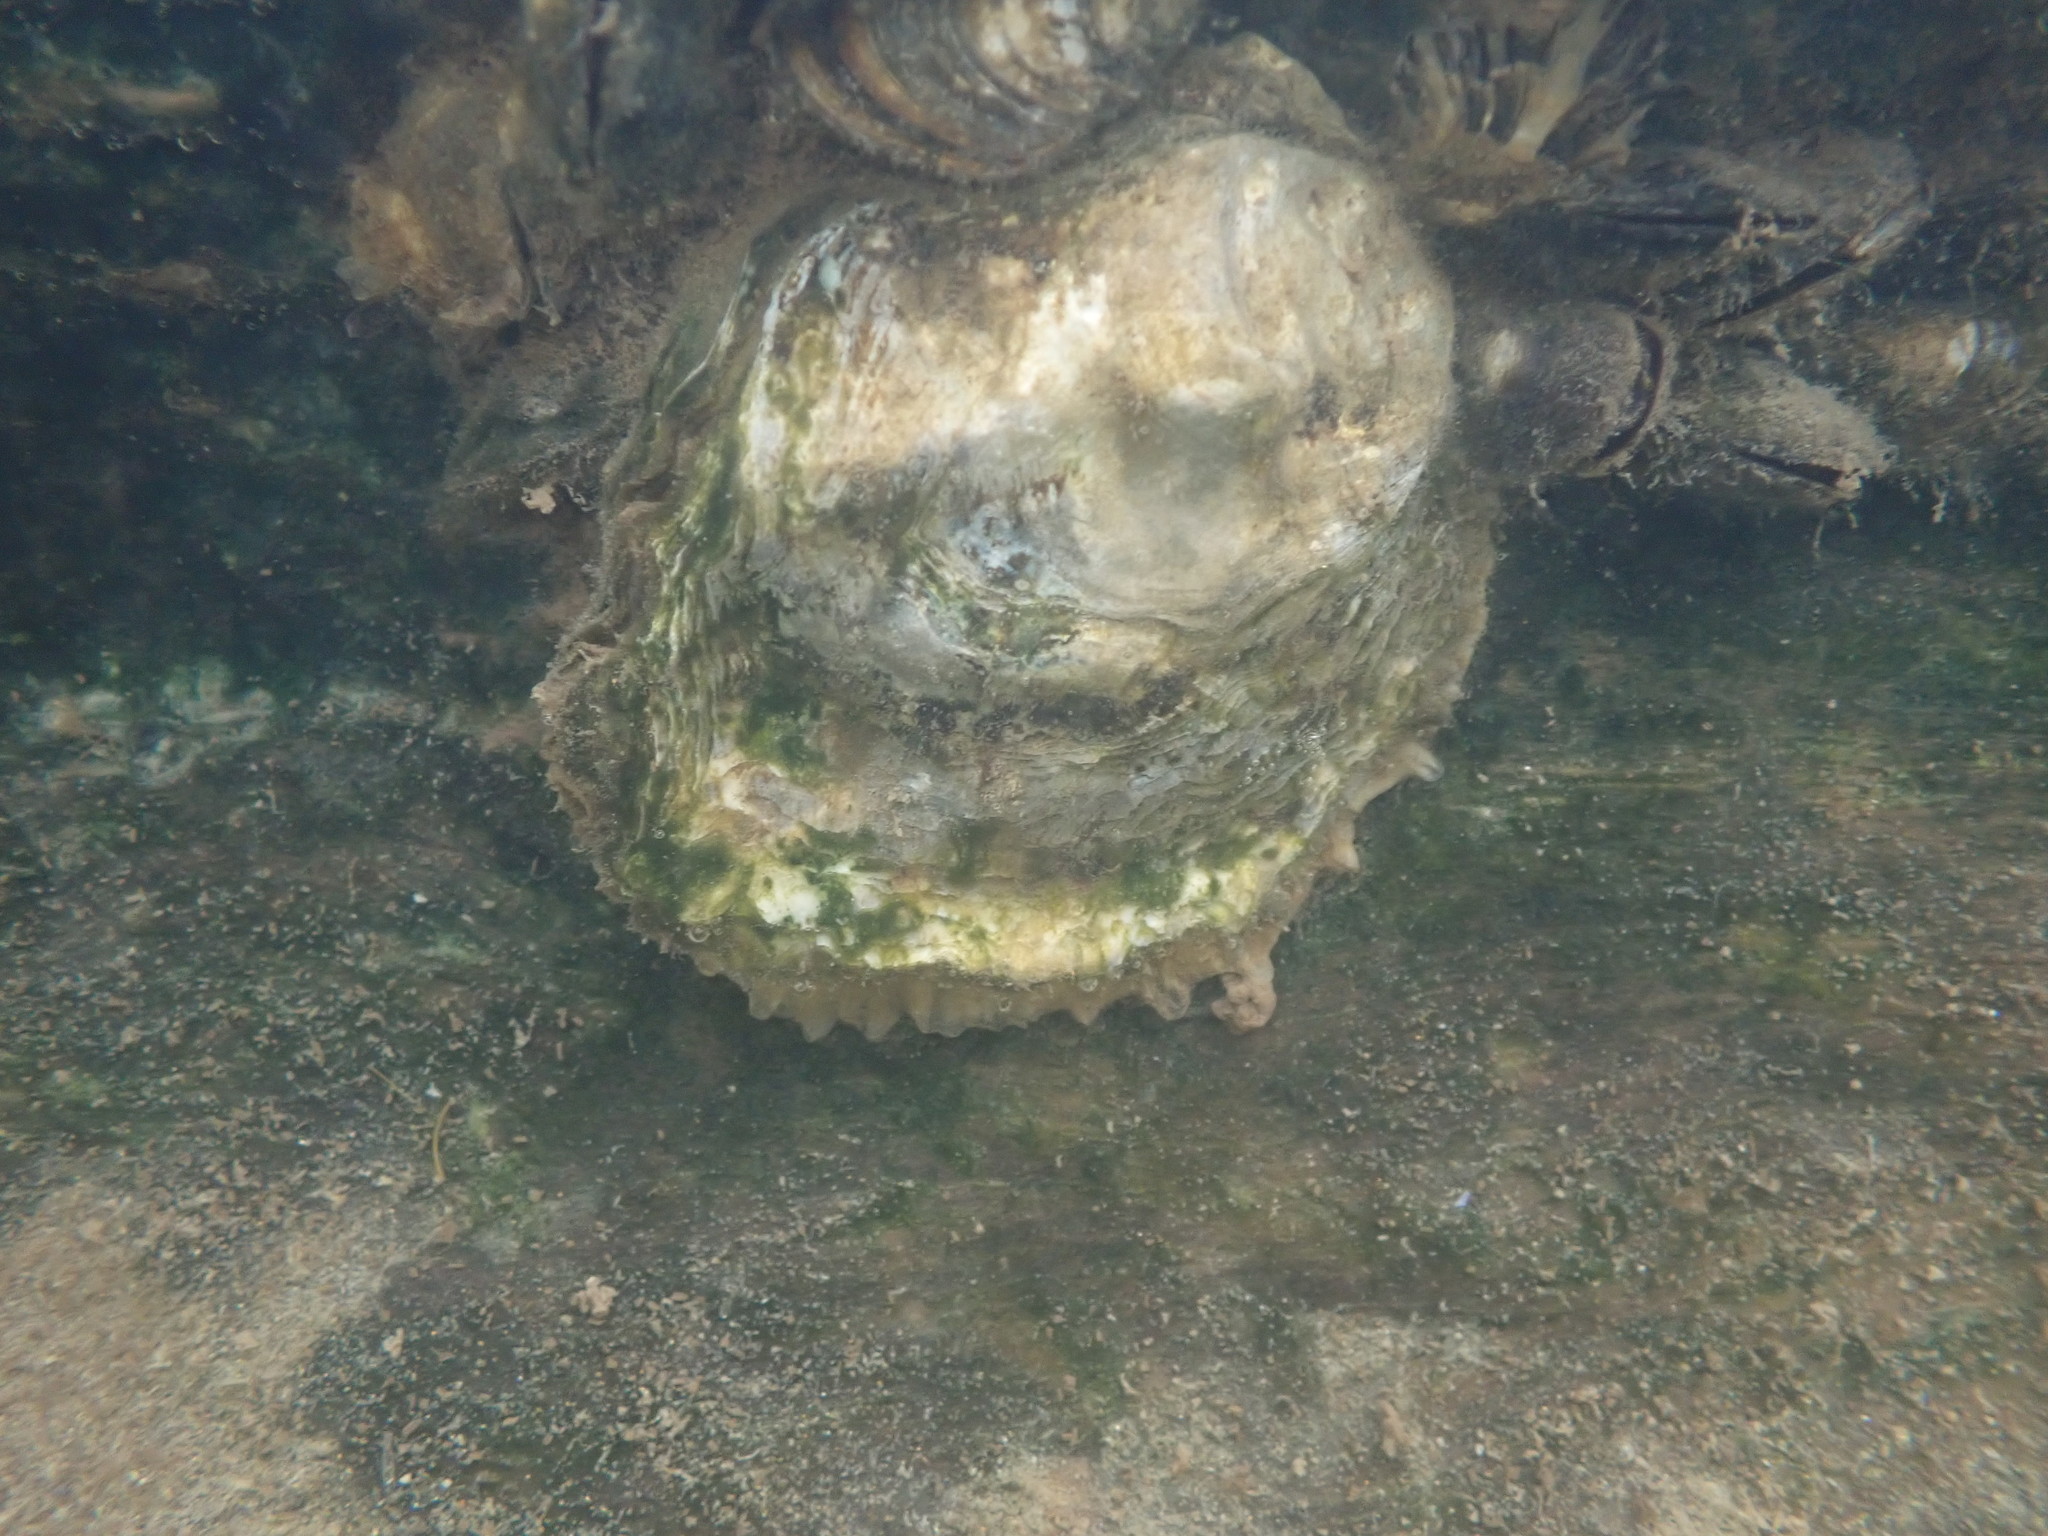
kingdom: Animalia
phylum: Mollusca
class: Bivalvia
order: Ostreida
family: Ostreidae
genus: Magallana
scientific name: Magallana gigas
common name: Pacific oyster
